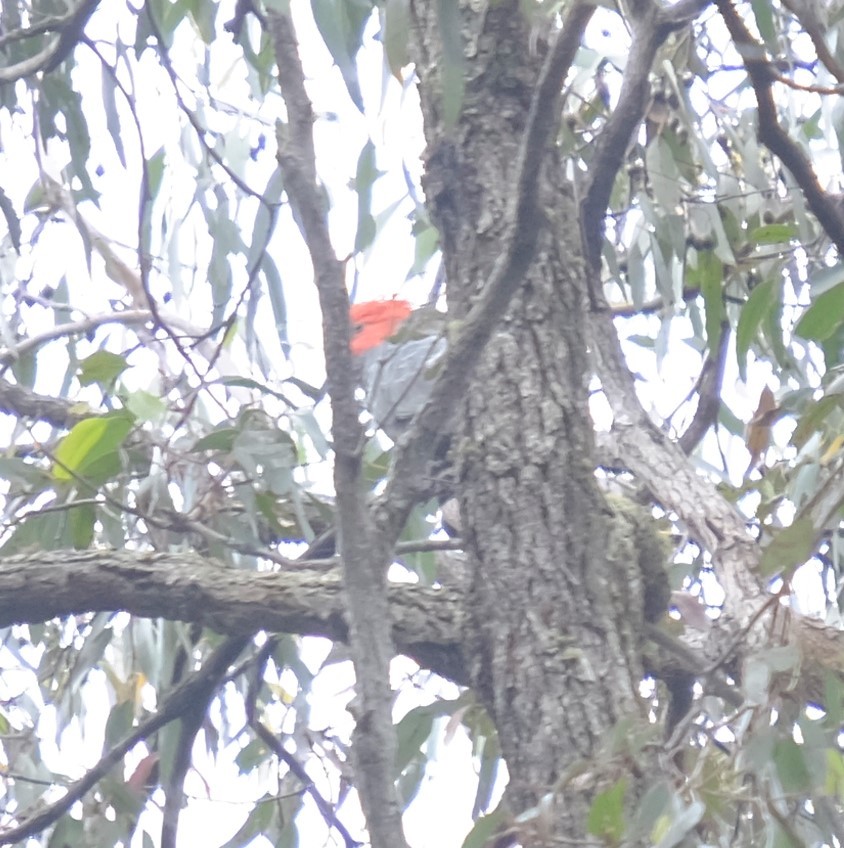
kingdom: Animalia
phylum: Chordata
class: Aves
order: Psittaciformes
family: Psittacidae
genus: Callocephalon
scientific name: Callocephalon fimbriatum
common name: Gang-gang cockatoo
